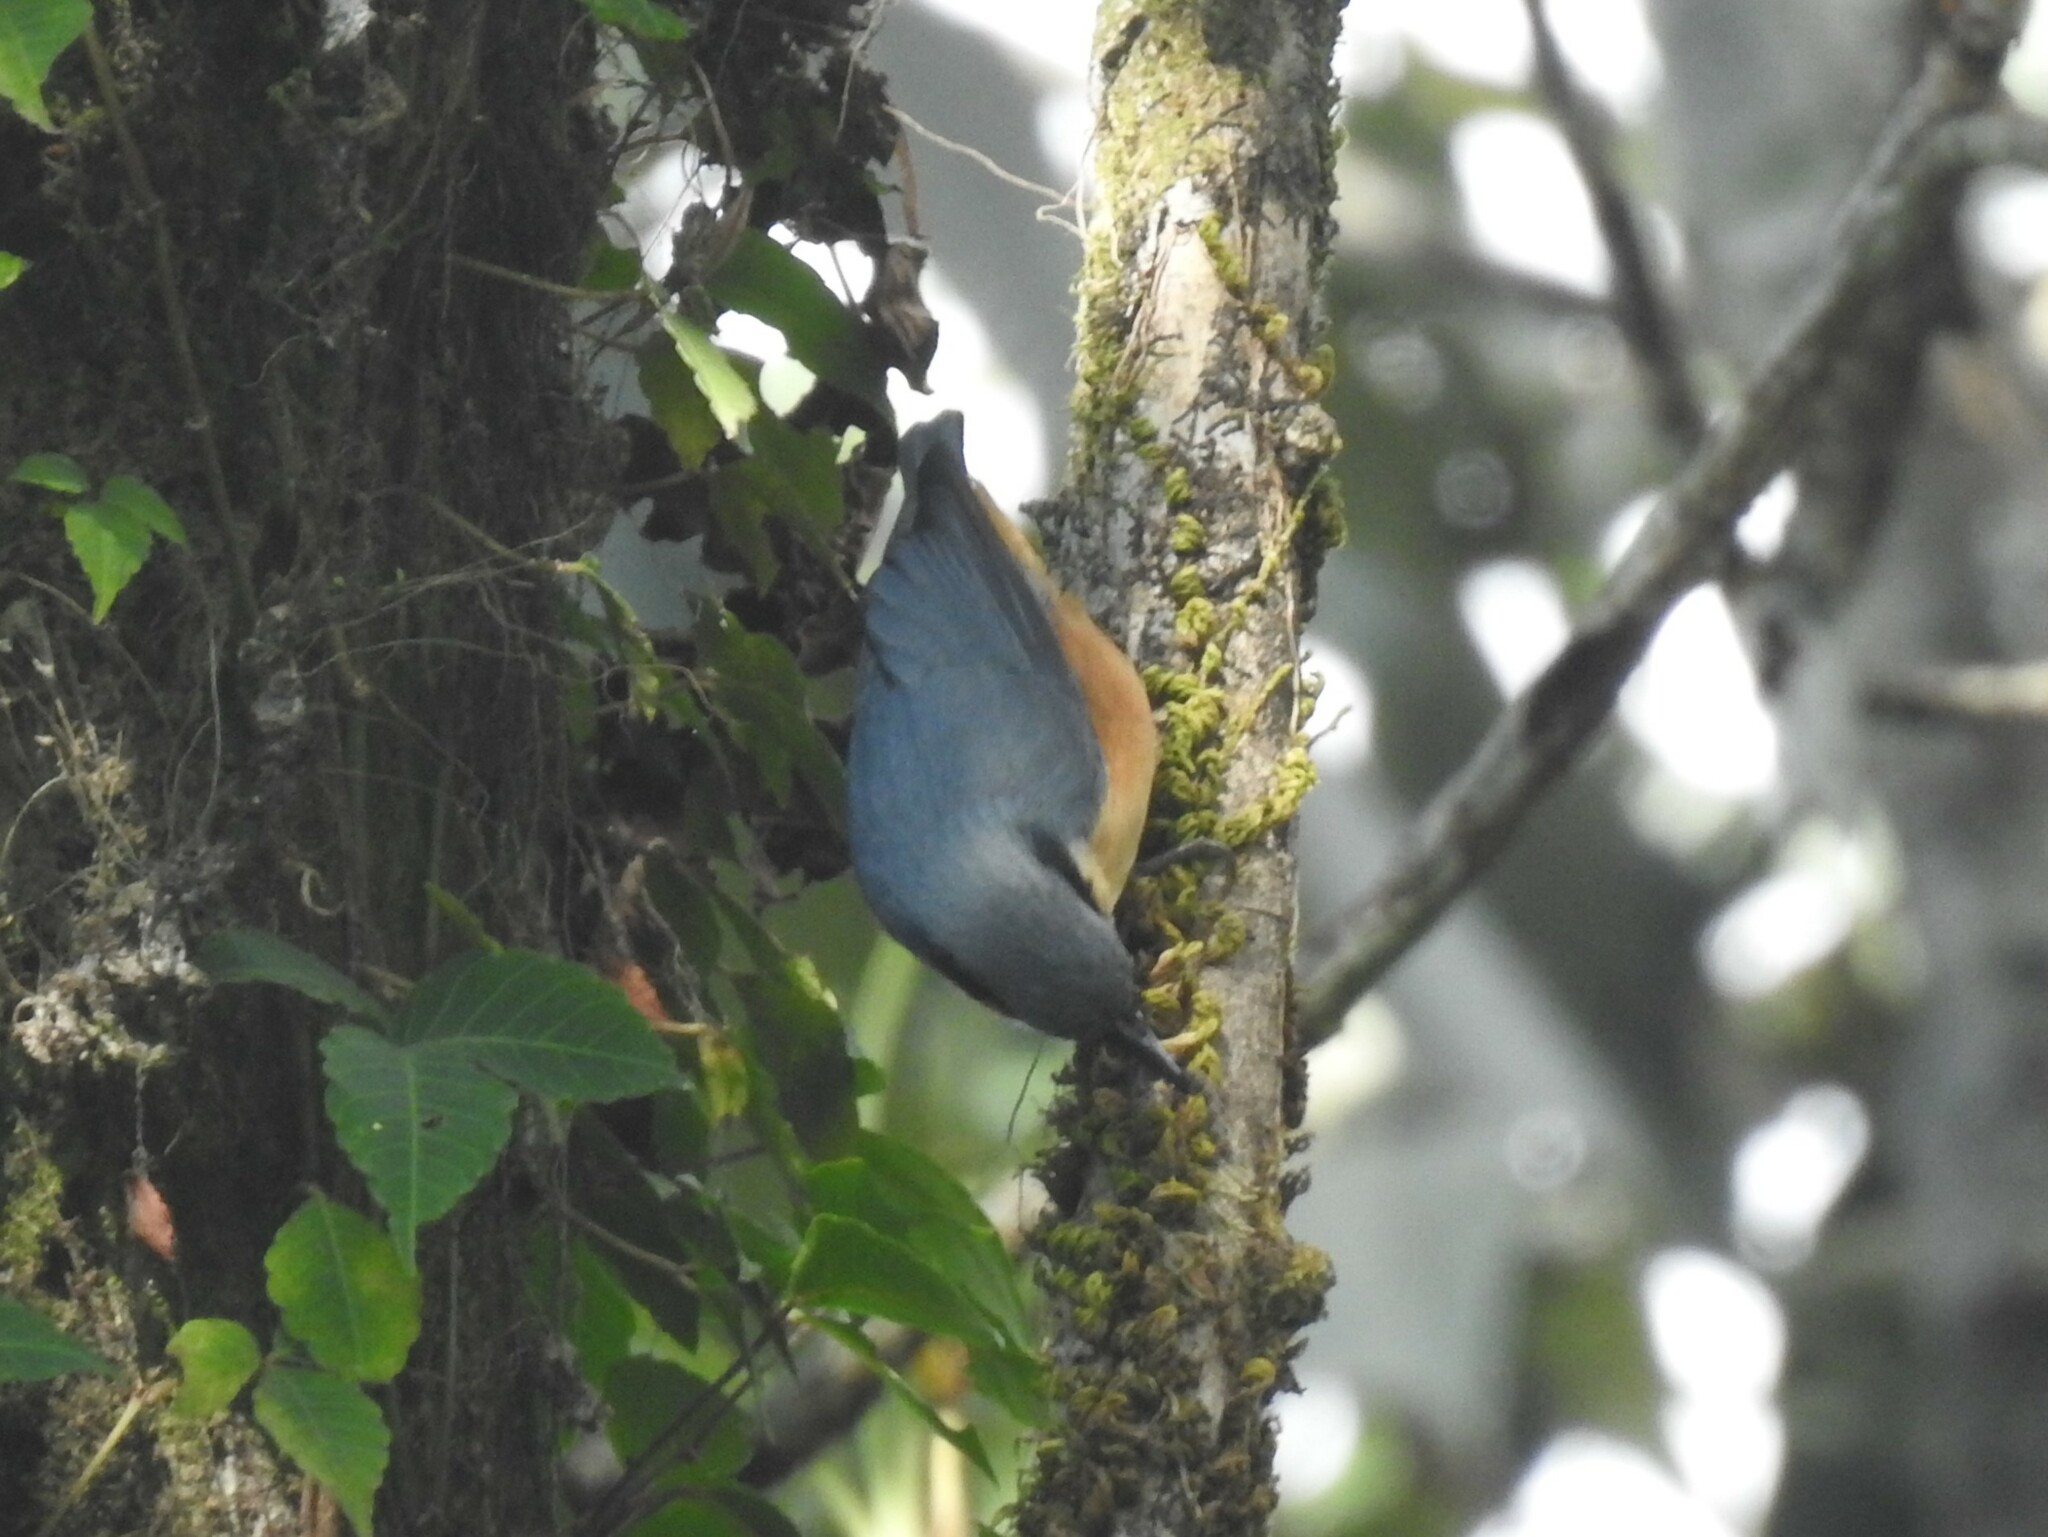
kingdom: Animalia
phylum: Chordata
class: Aves
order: Passeriformes
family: Sittidae
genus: Sitta
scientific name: Sitta himalayensis
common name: White-tailed nuthatch
